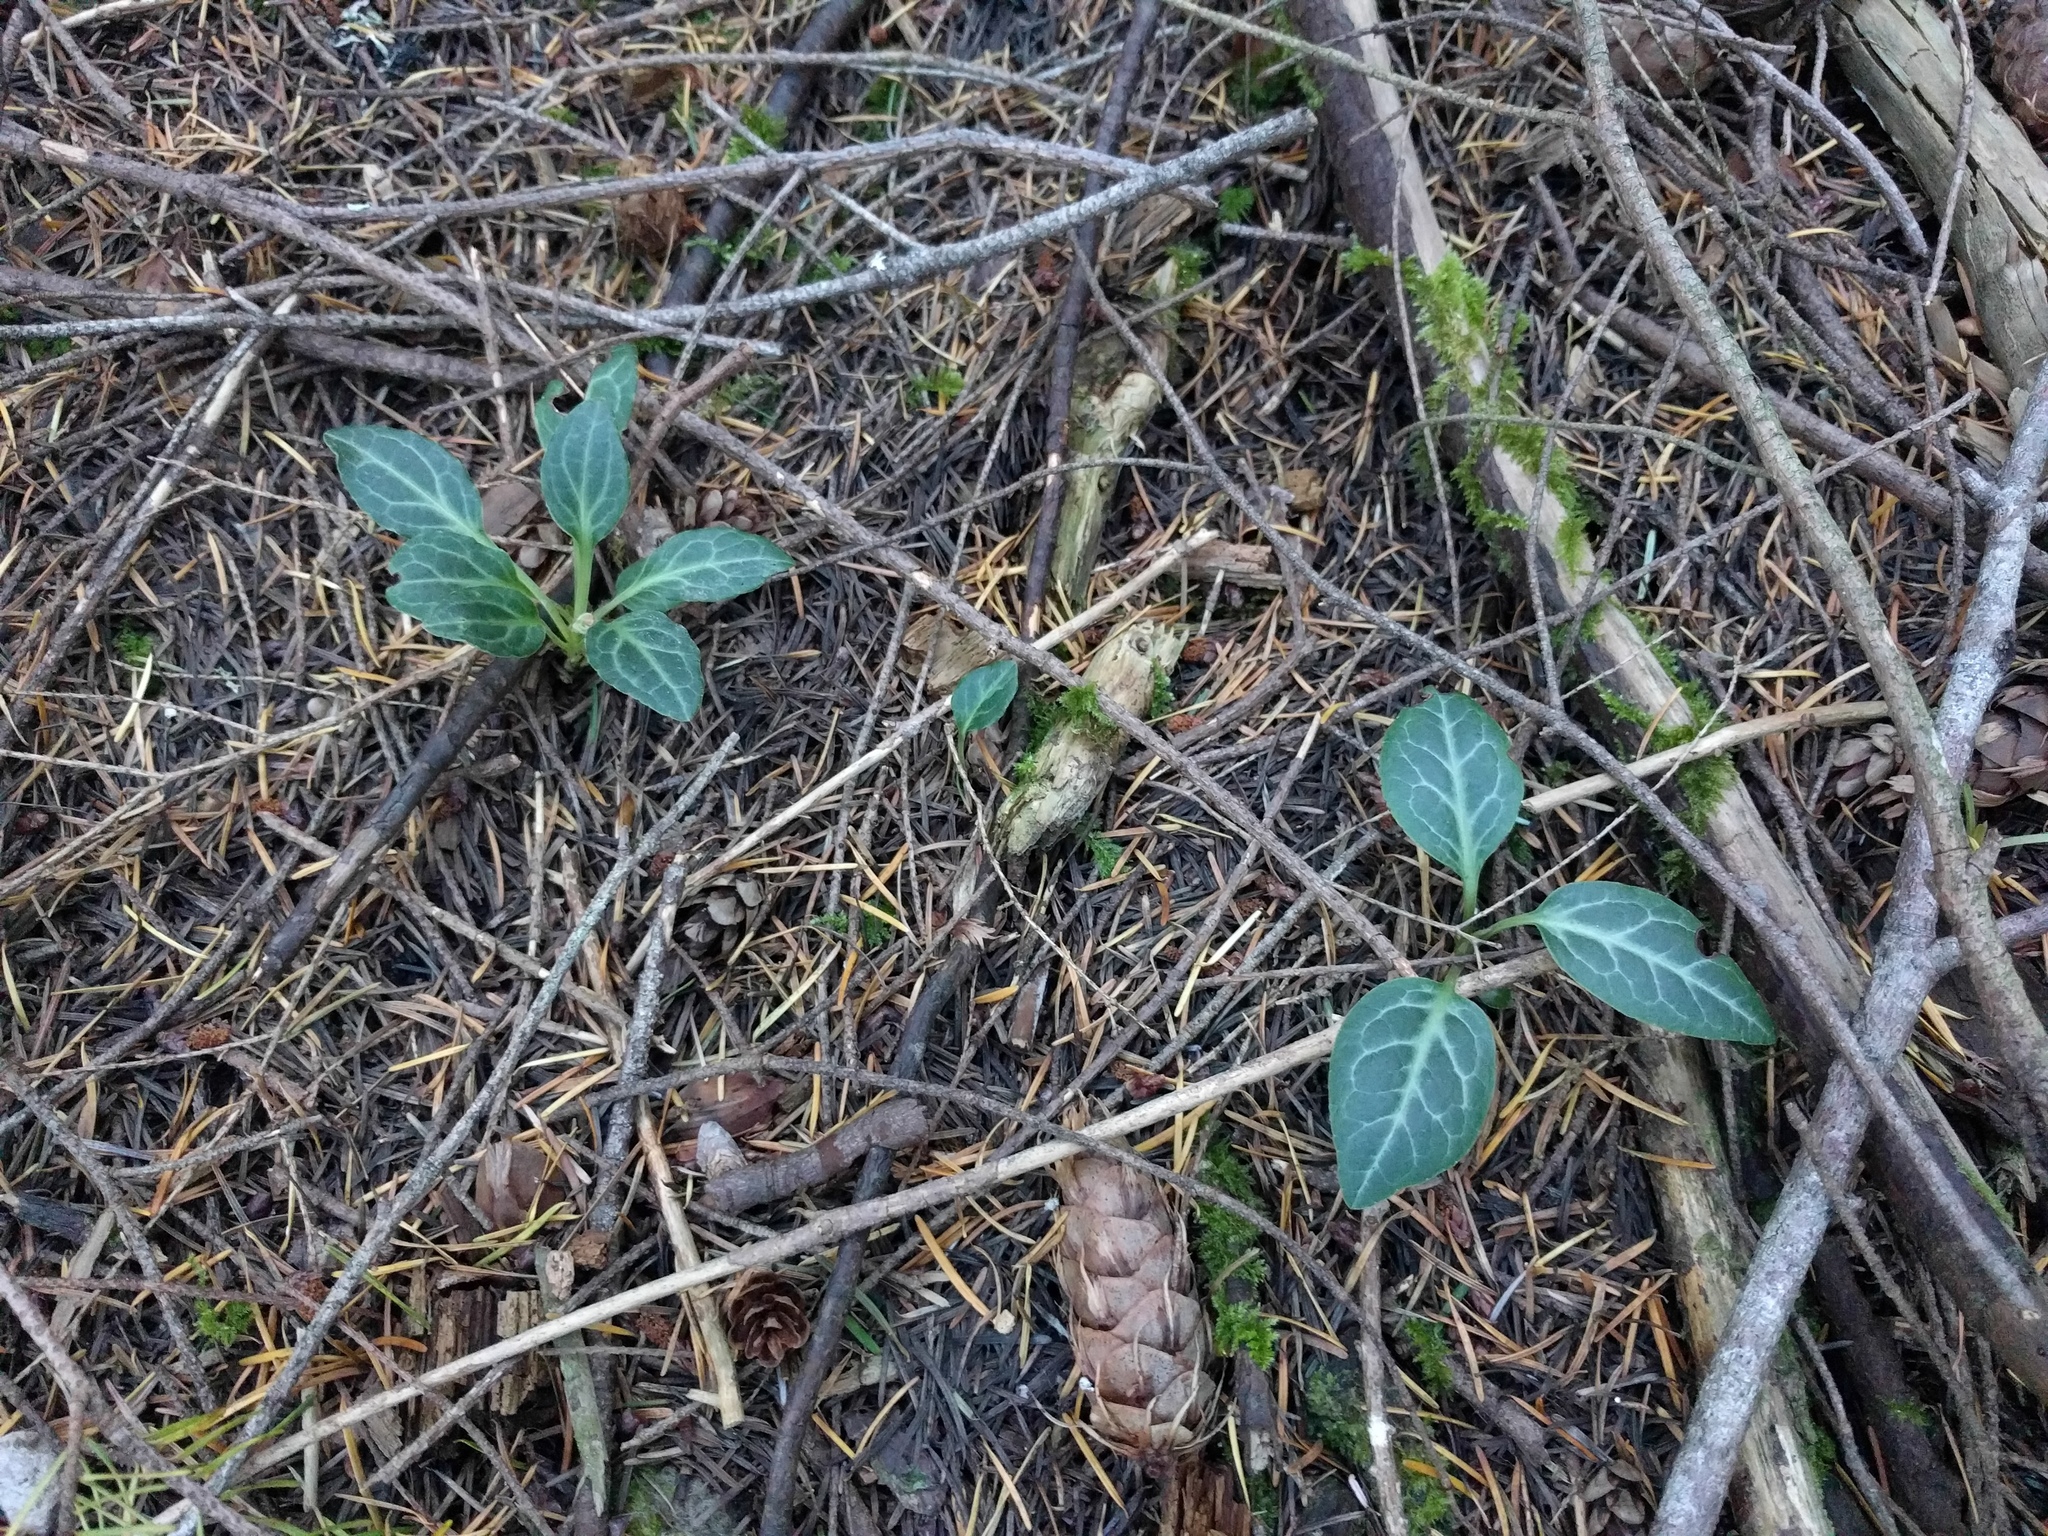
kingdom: Plantae
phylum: Tracheophyta
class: Magnoliopsida
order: Ericales
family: Ericaceae
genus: Pyrola
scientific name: Pyrola picta
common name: White-vein wintergreen
